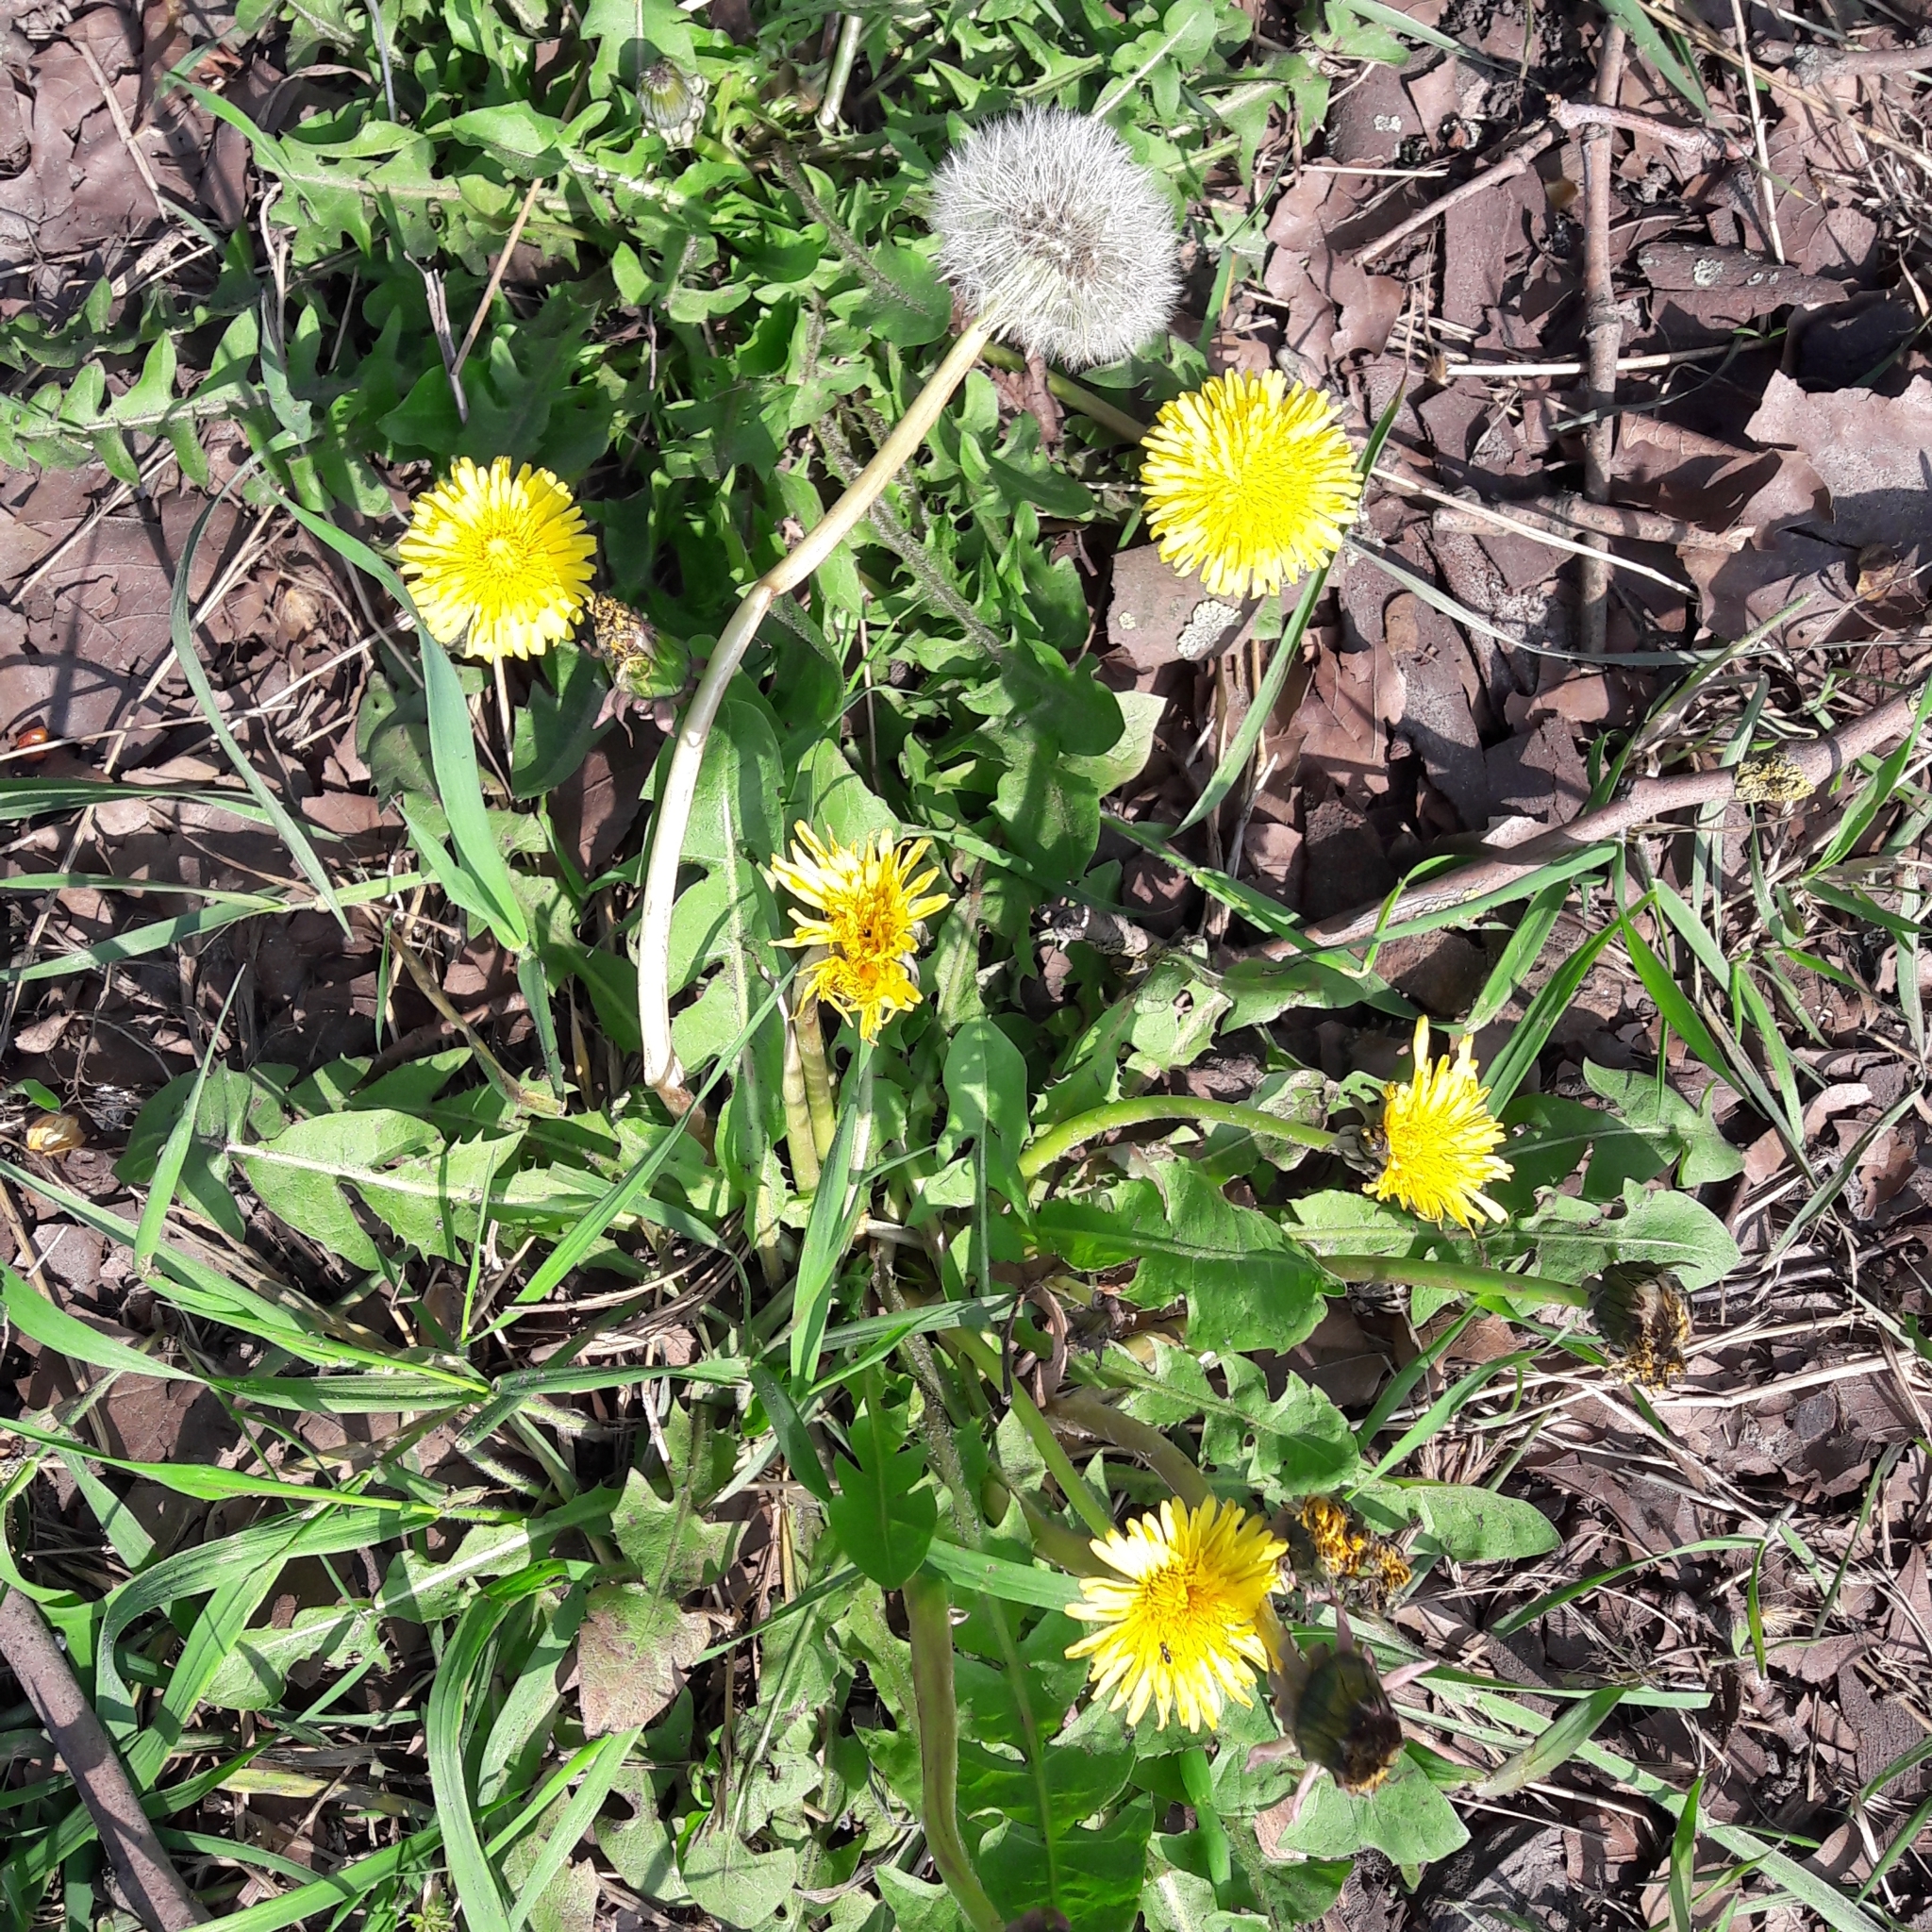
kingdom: Plantae
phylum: Tracheophyta
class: Magnoliopsida
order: Asterales
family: Asteraceae
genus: Taraxacum
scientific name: Taraxacum officinale
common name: Common dandelion
